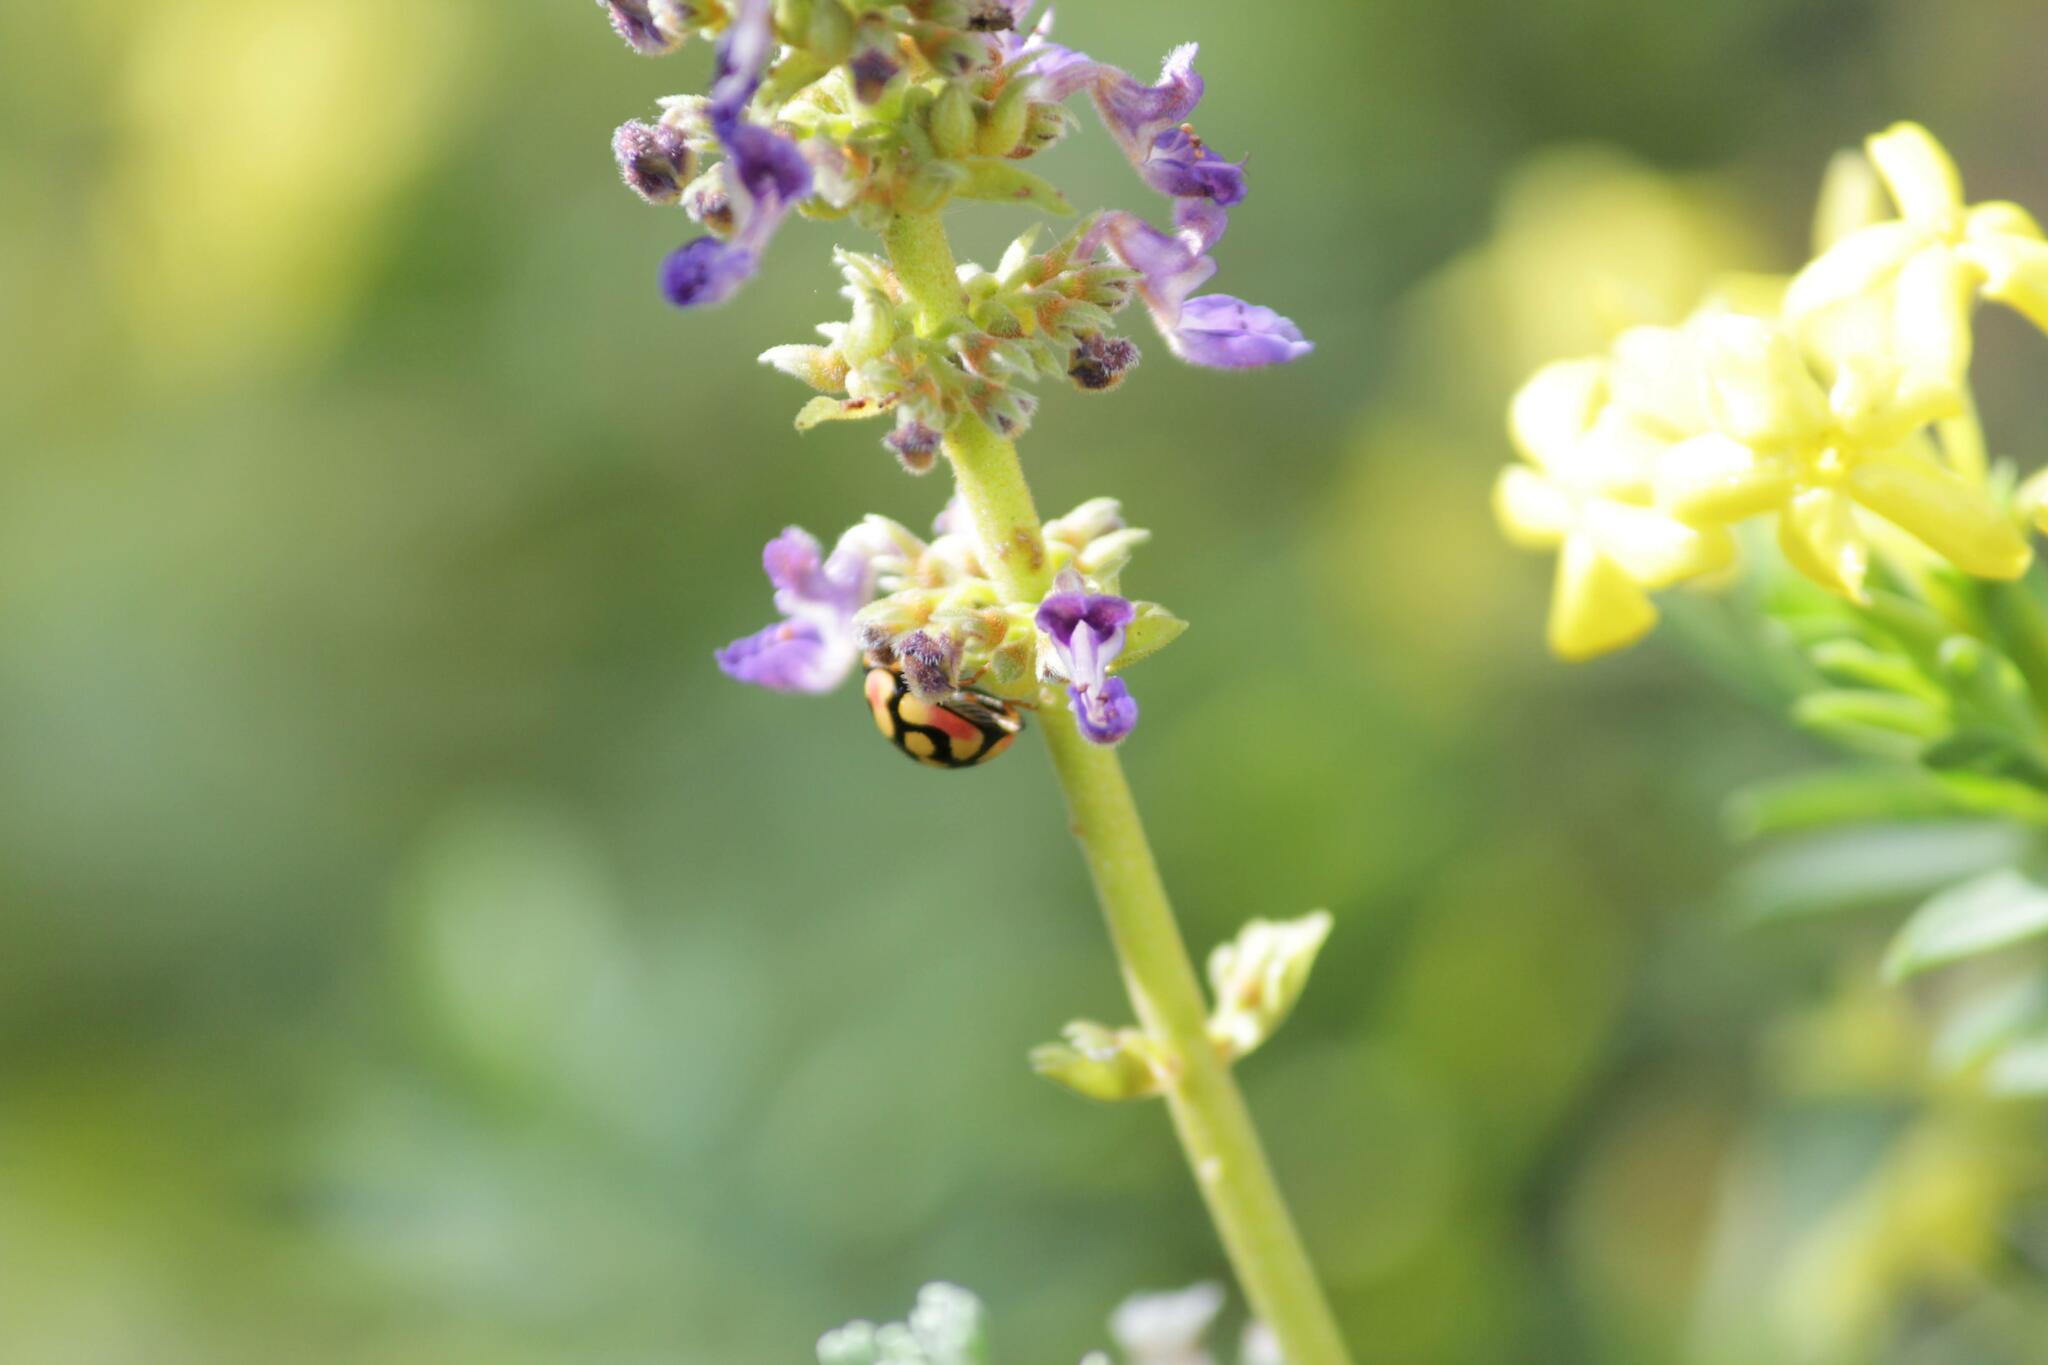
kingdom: Animalia
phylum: Arthropoda
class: Insecta
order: Coleoptera
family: Coccinellidae
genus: Cheilomenes
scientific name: Cheilomenes sulphurea
